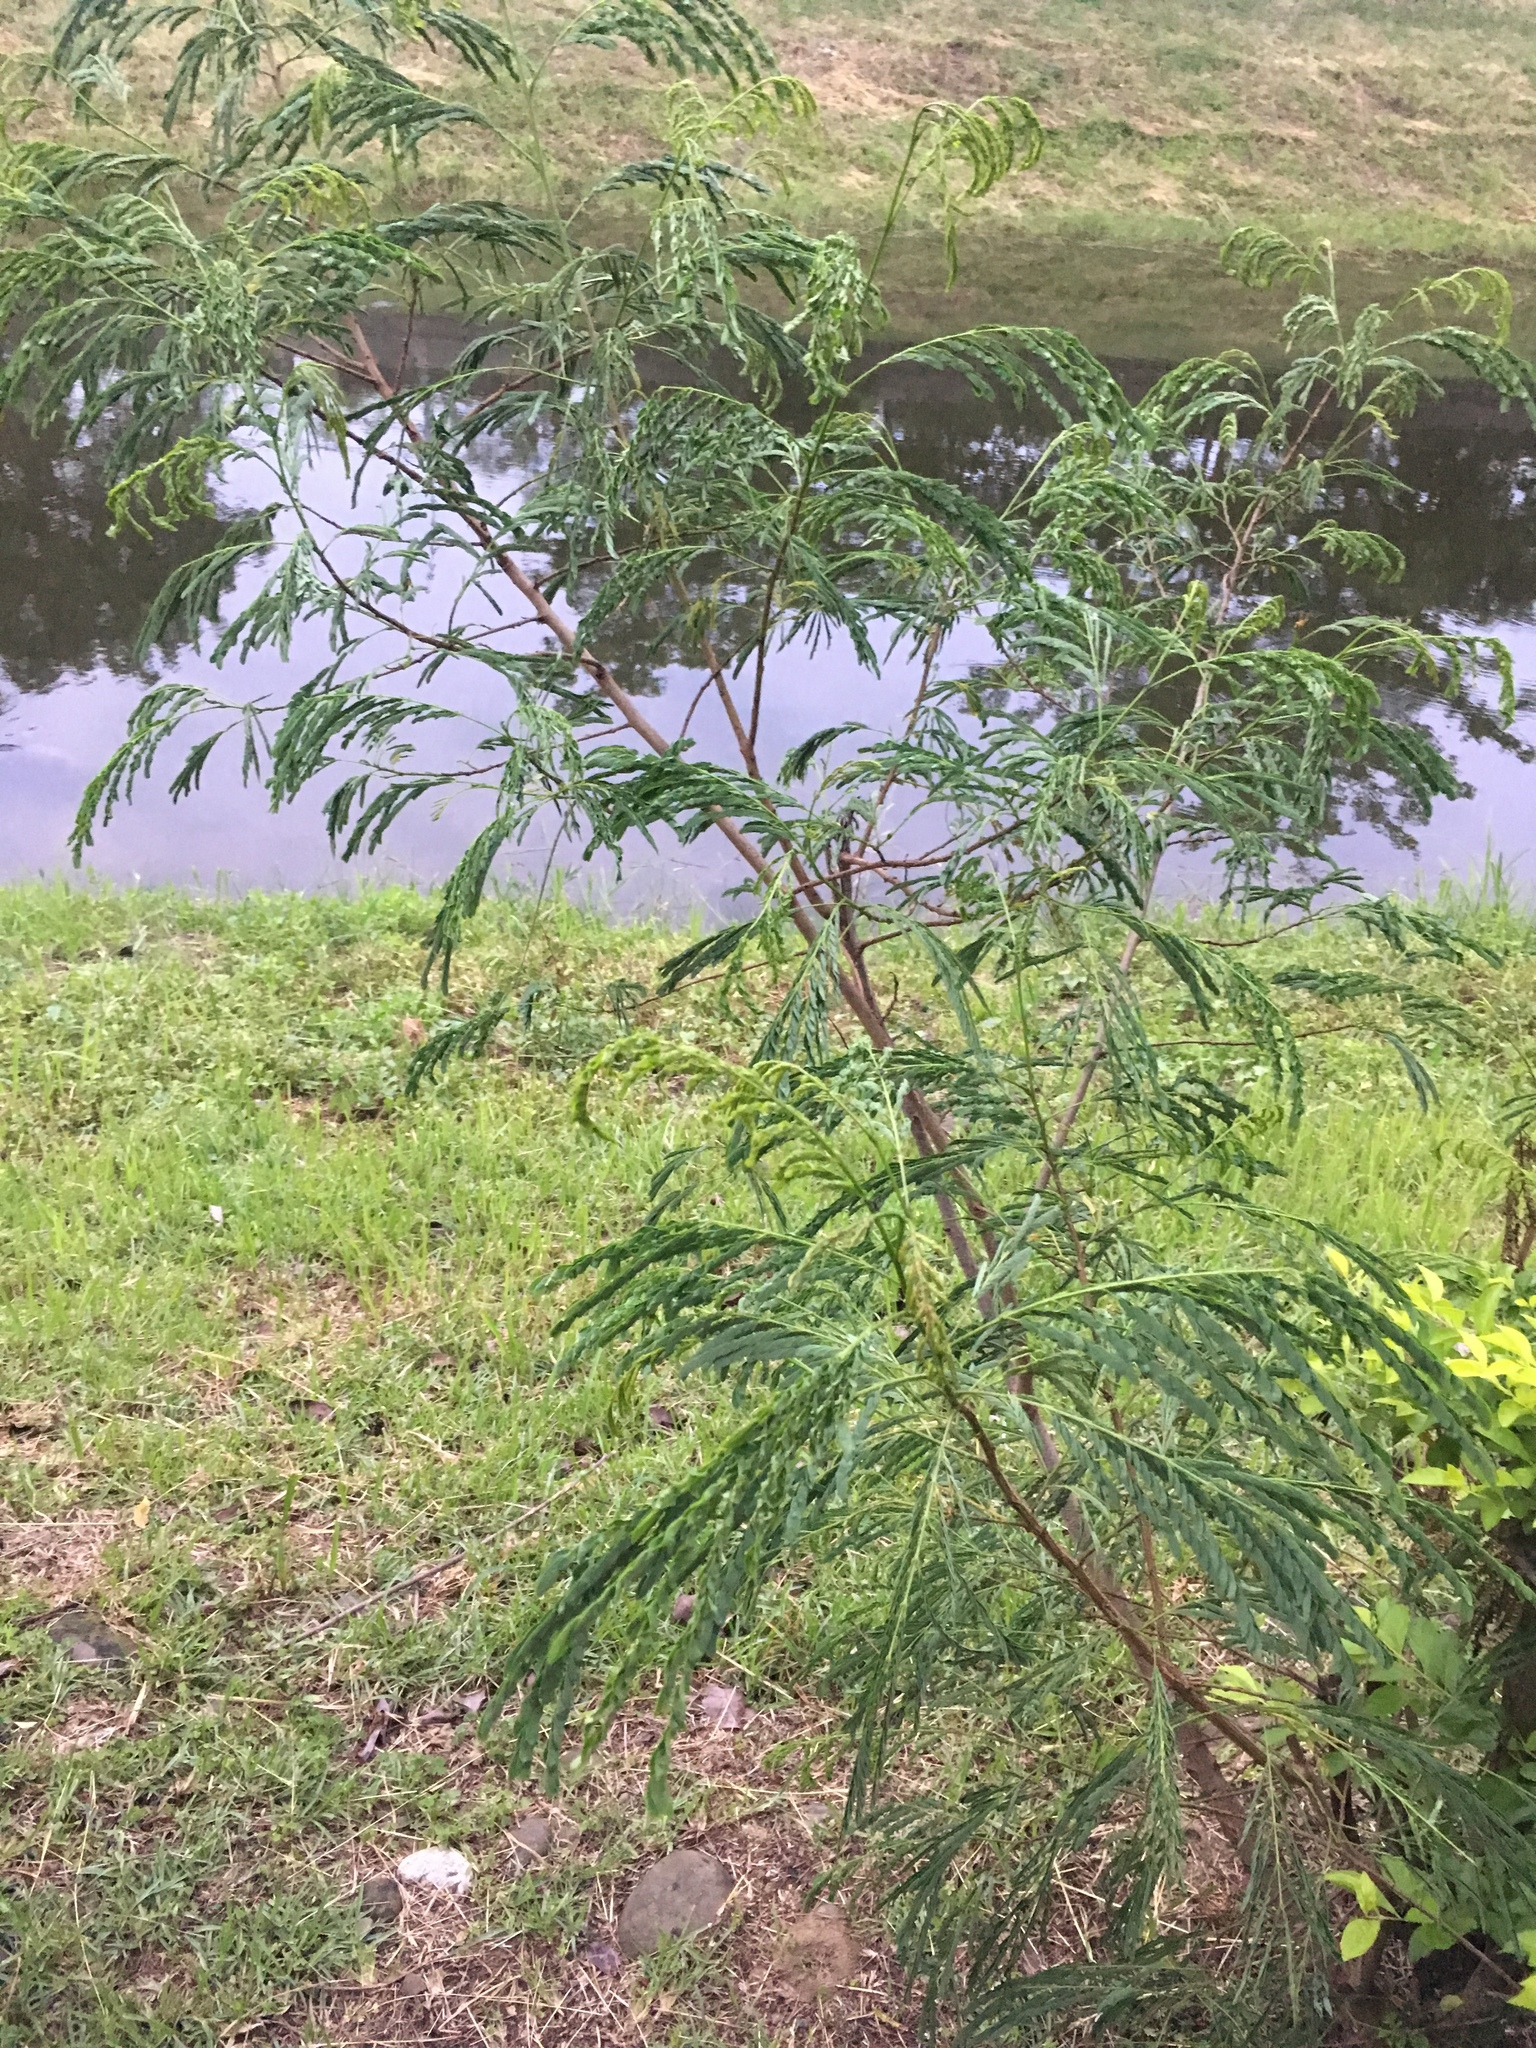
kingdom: Plantae
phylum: Tracheophyta
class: Magnoliopsida
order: Fabales
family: Fabaceae
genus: Leucaena
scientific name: Leucaena leucocephala
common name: White leadtree
